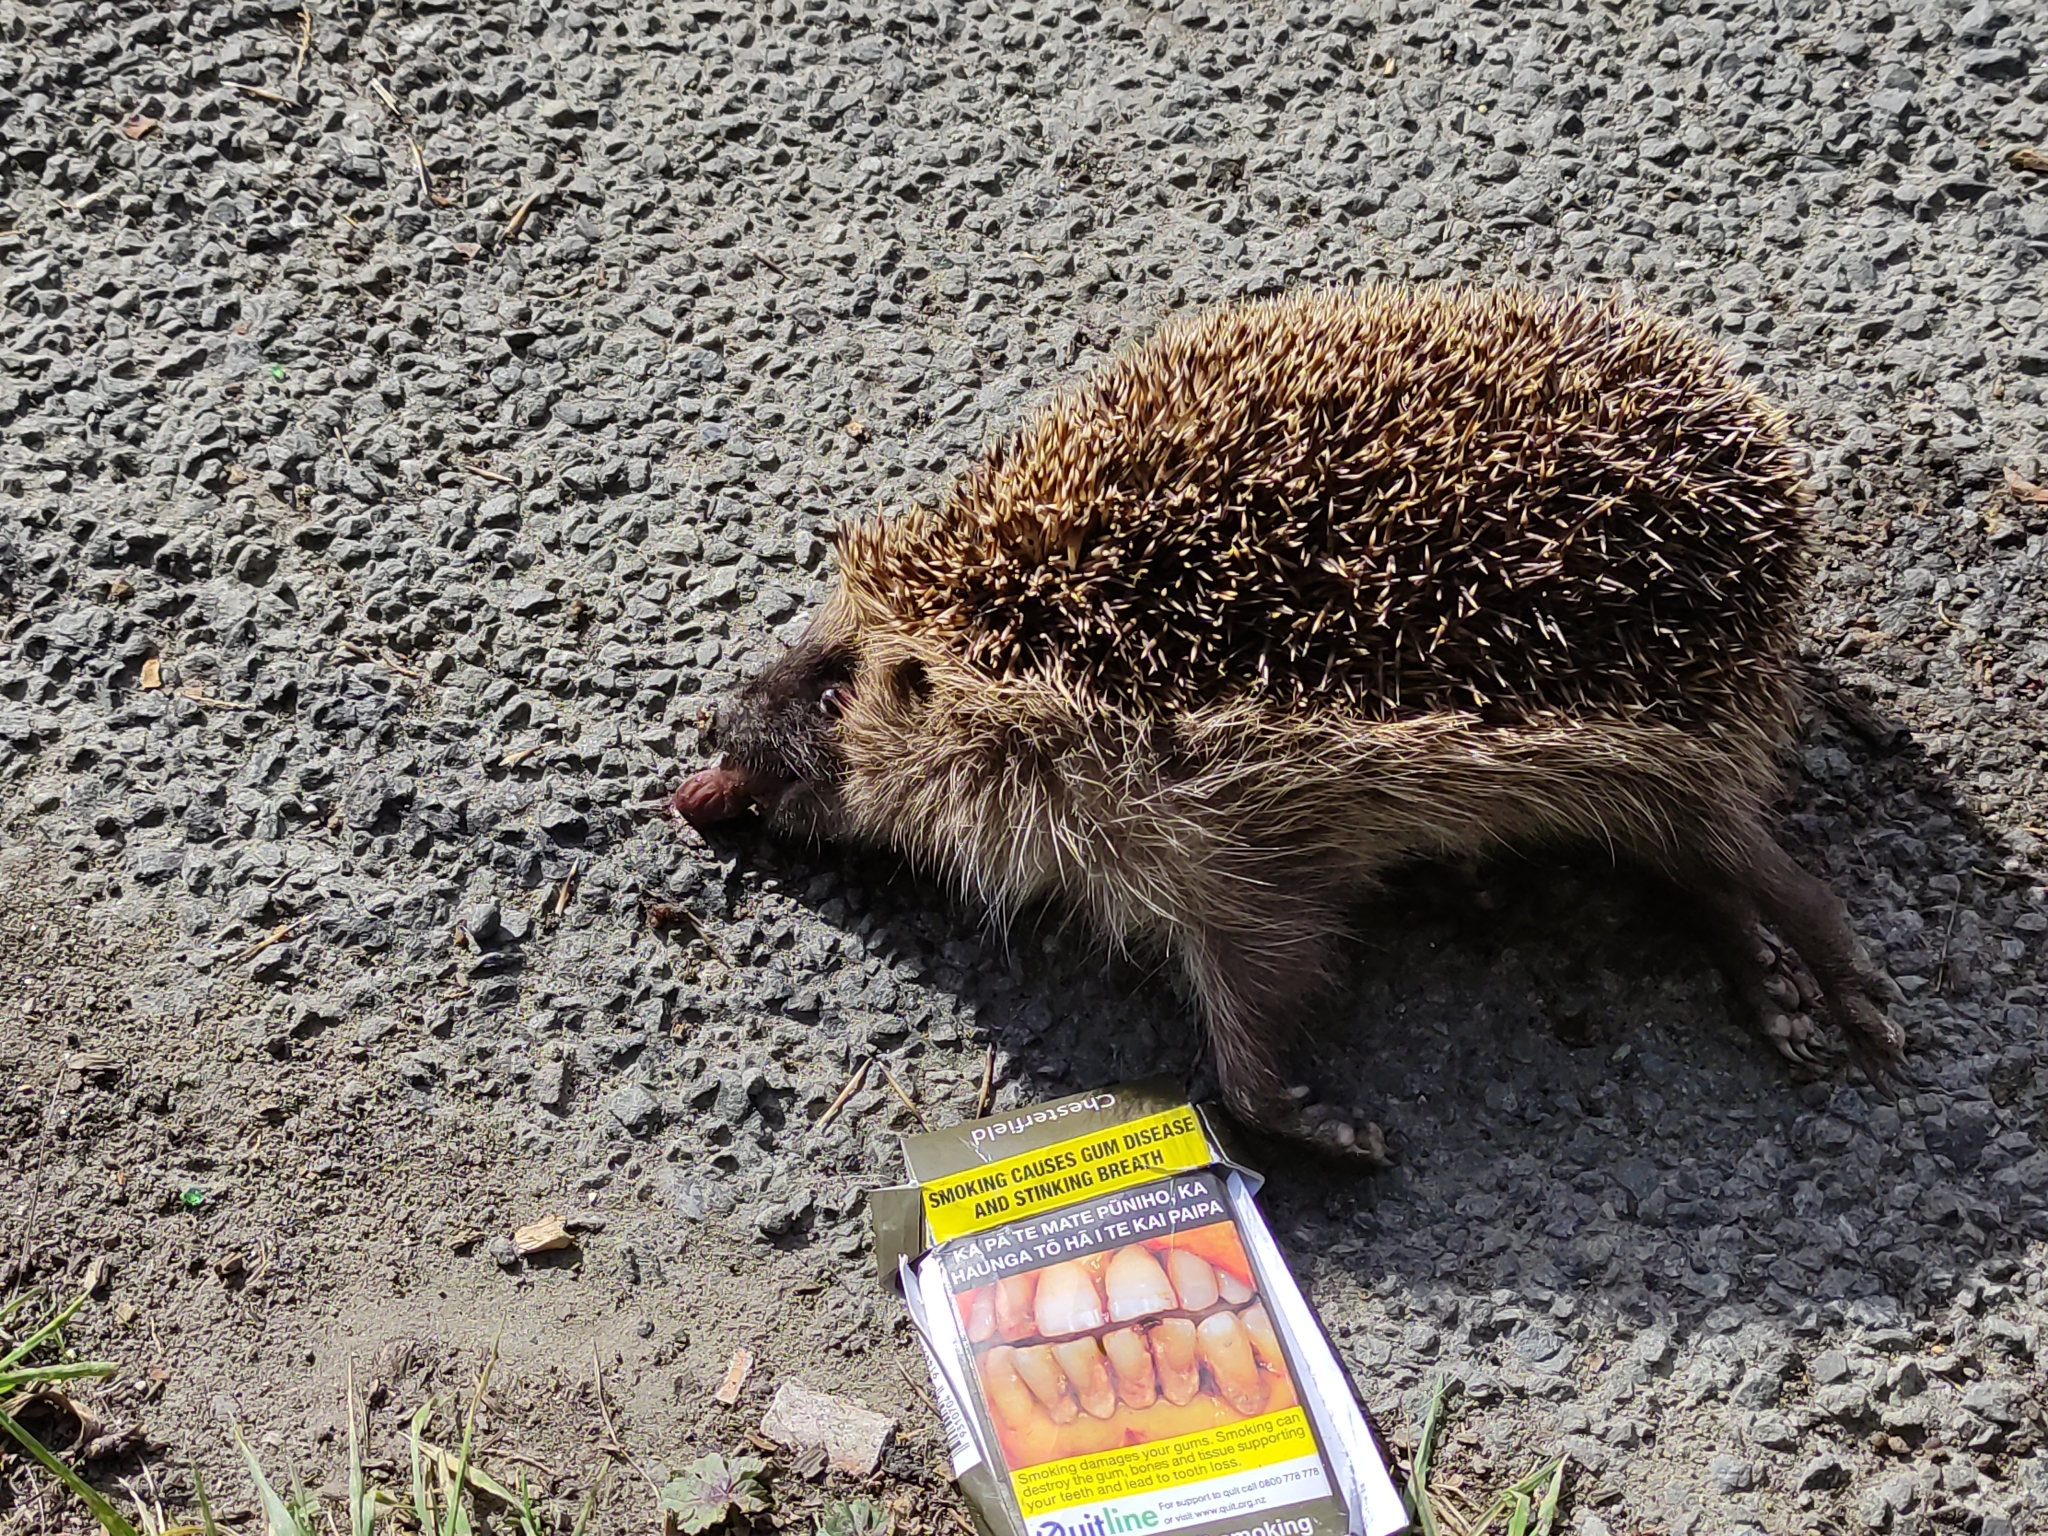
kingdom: Animalia
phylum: Chordata
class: Mammalia
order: Erinaceomorpha
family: Erinaceidae
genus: Erinaceus
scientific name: Erinaceus europaeus
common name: West european hedgehog
